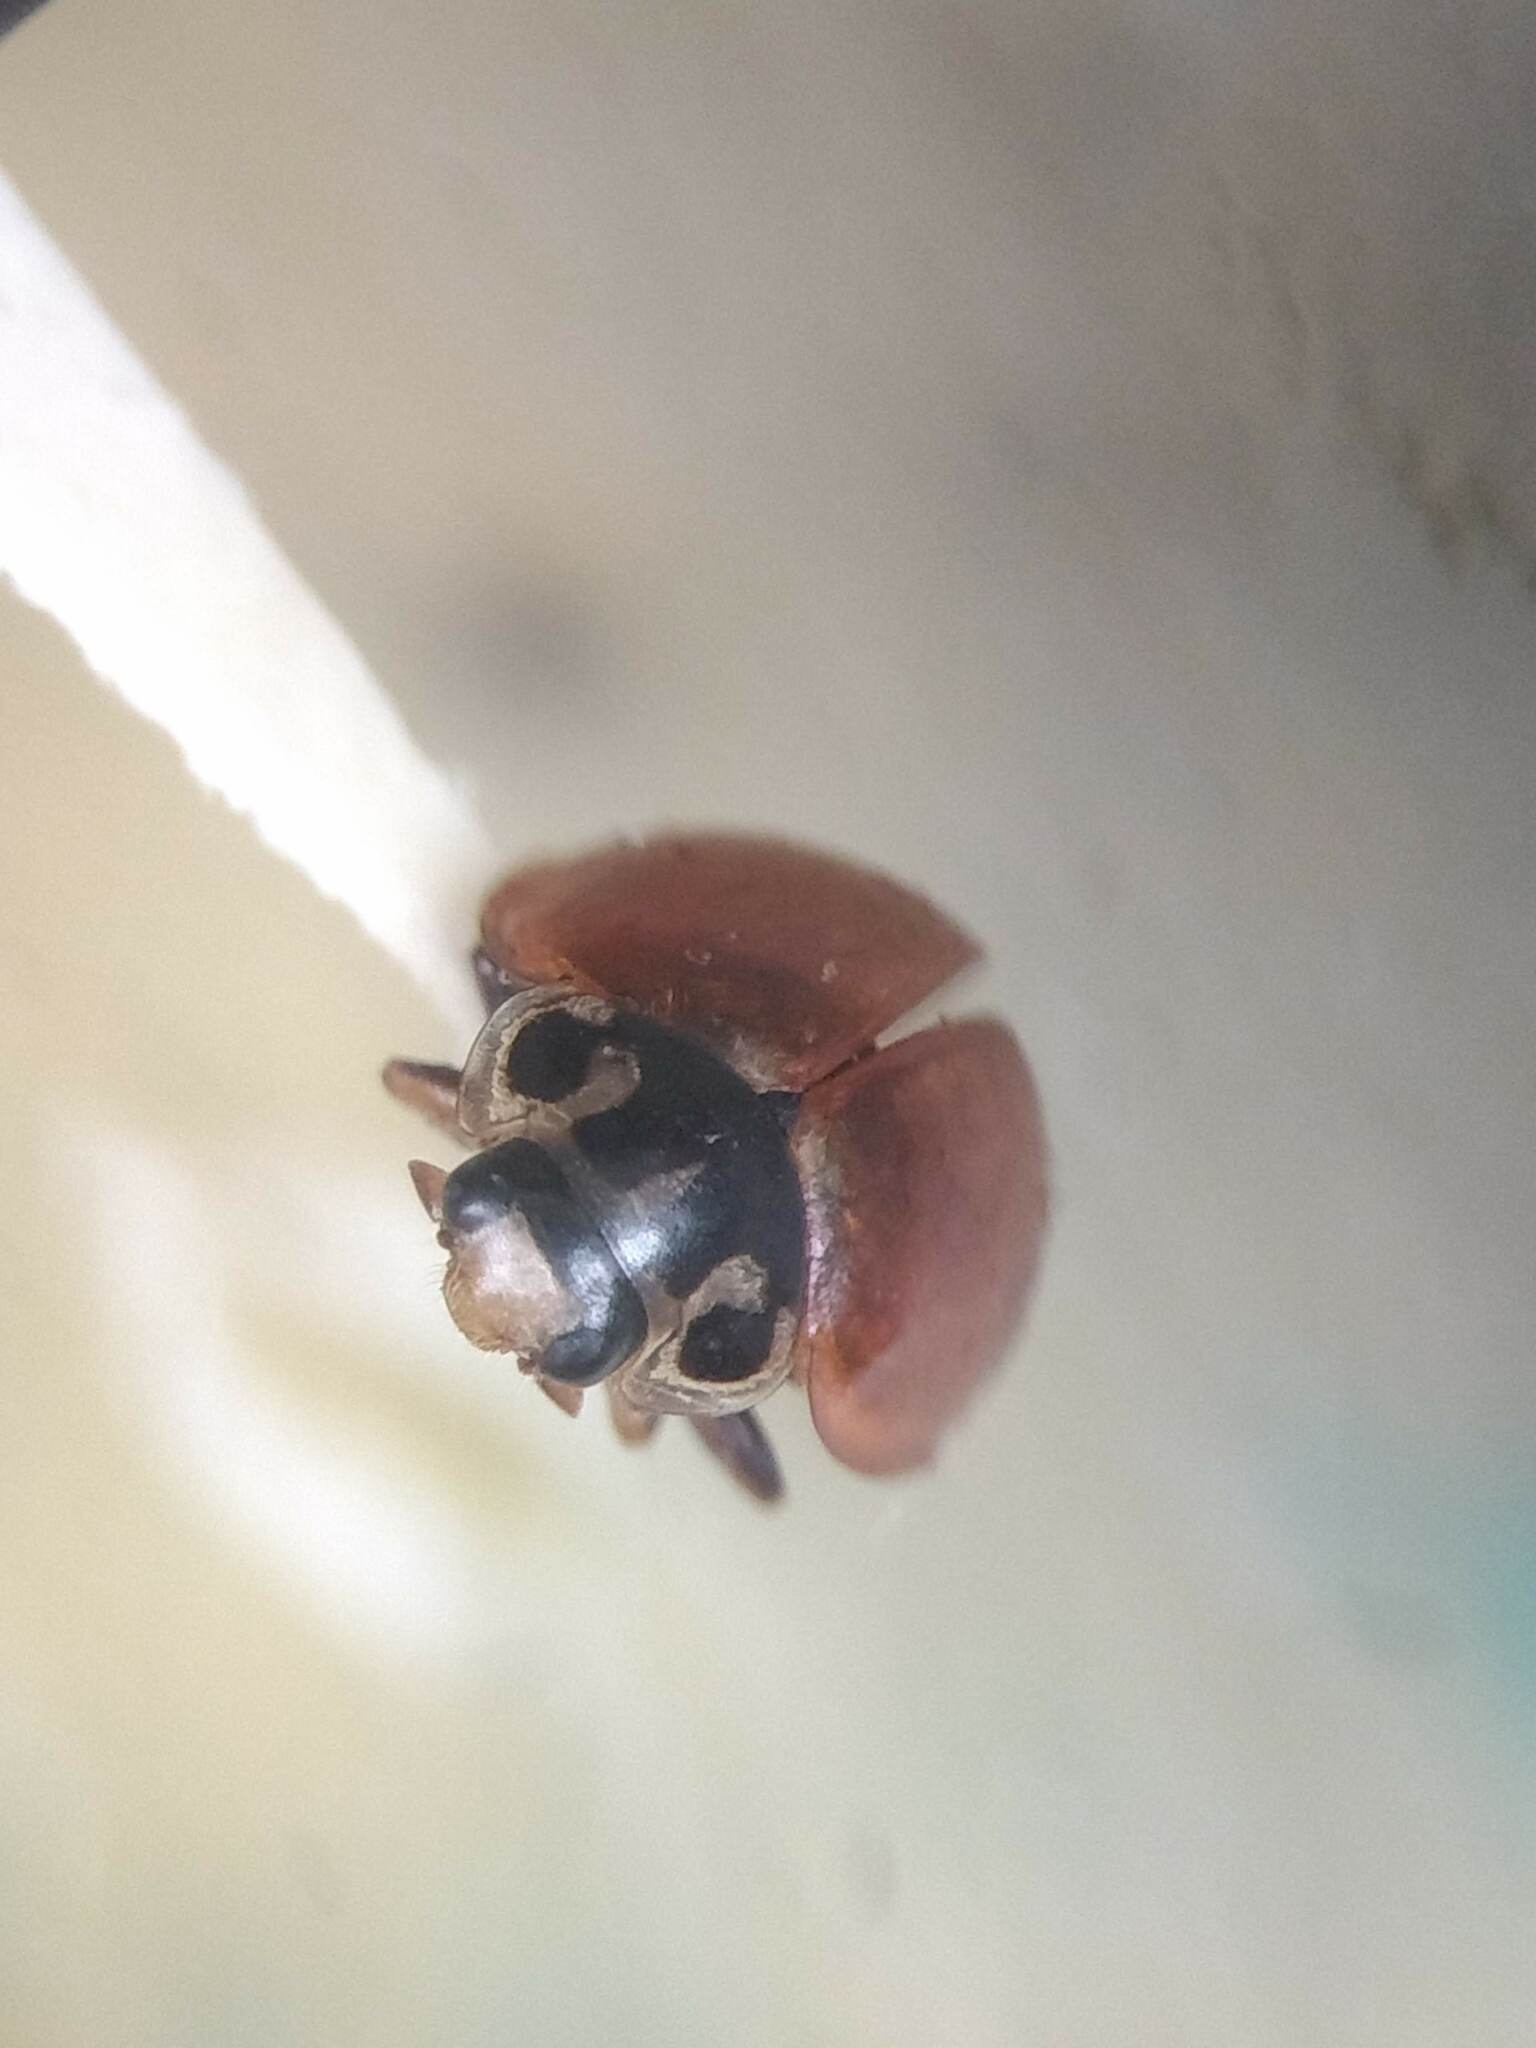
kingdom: Animalia
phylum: Arthropoda
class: Insecta
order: Coleoptera
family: Coccinellidae
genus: Cycloneda
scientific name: Cycloneda polita
